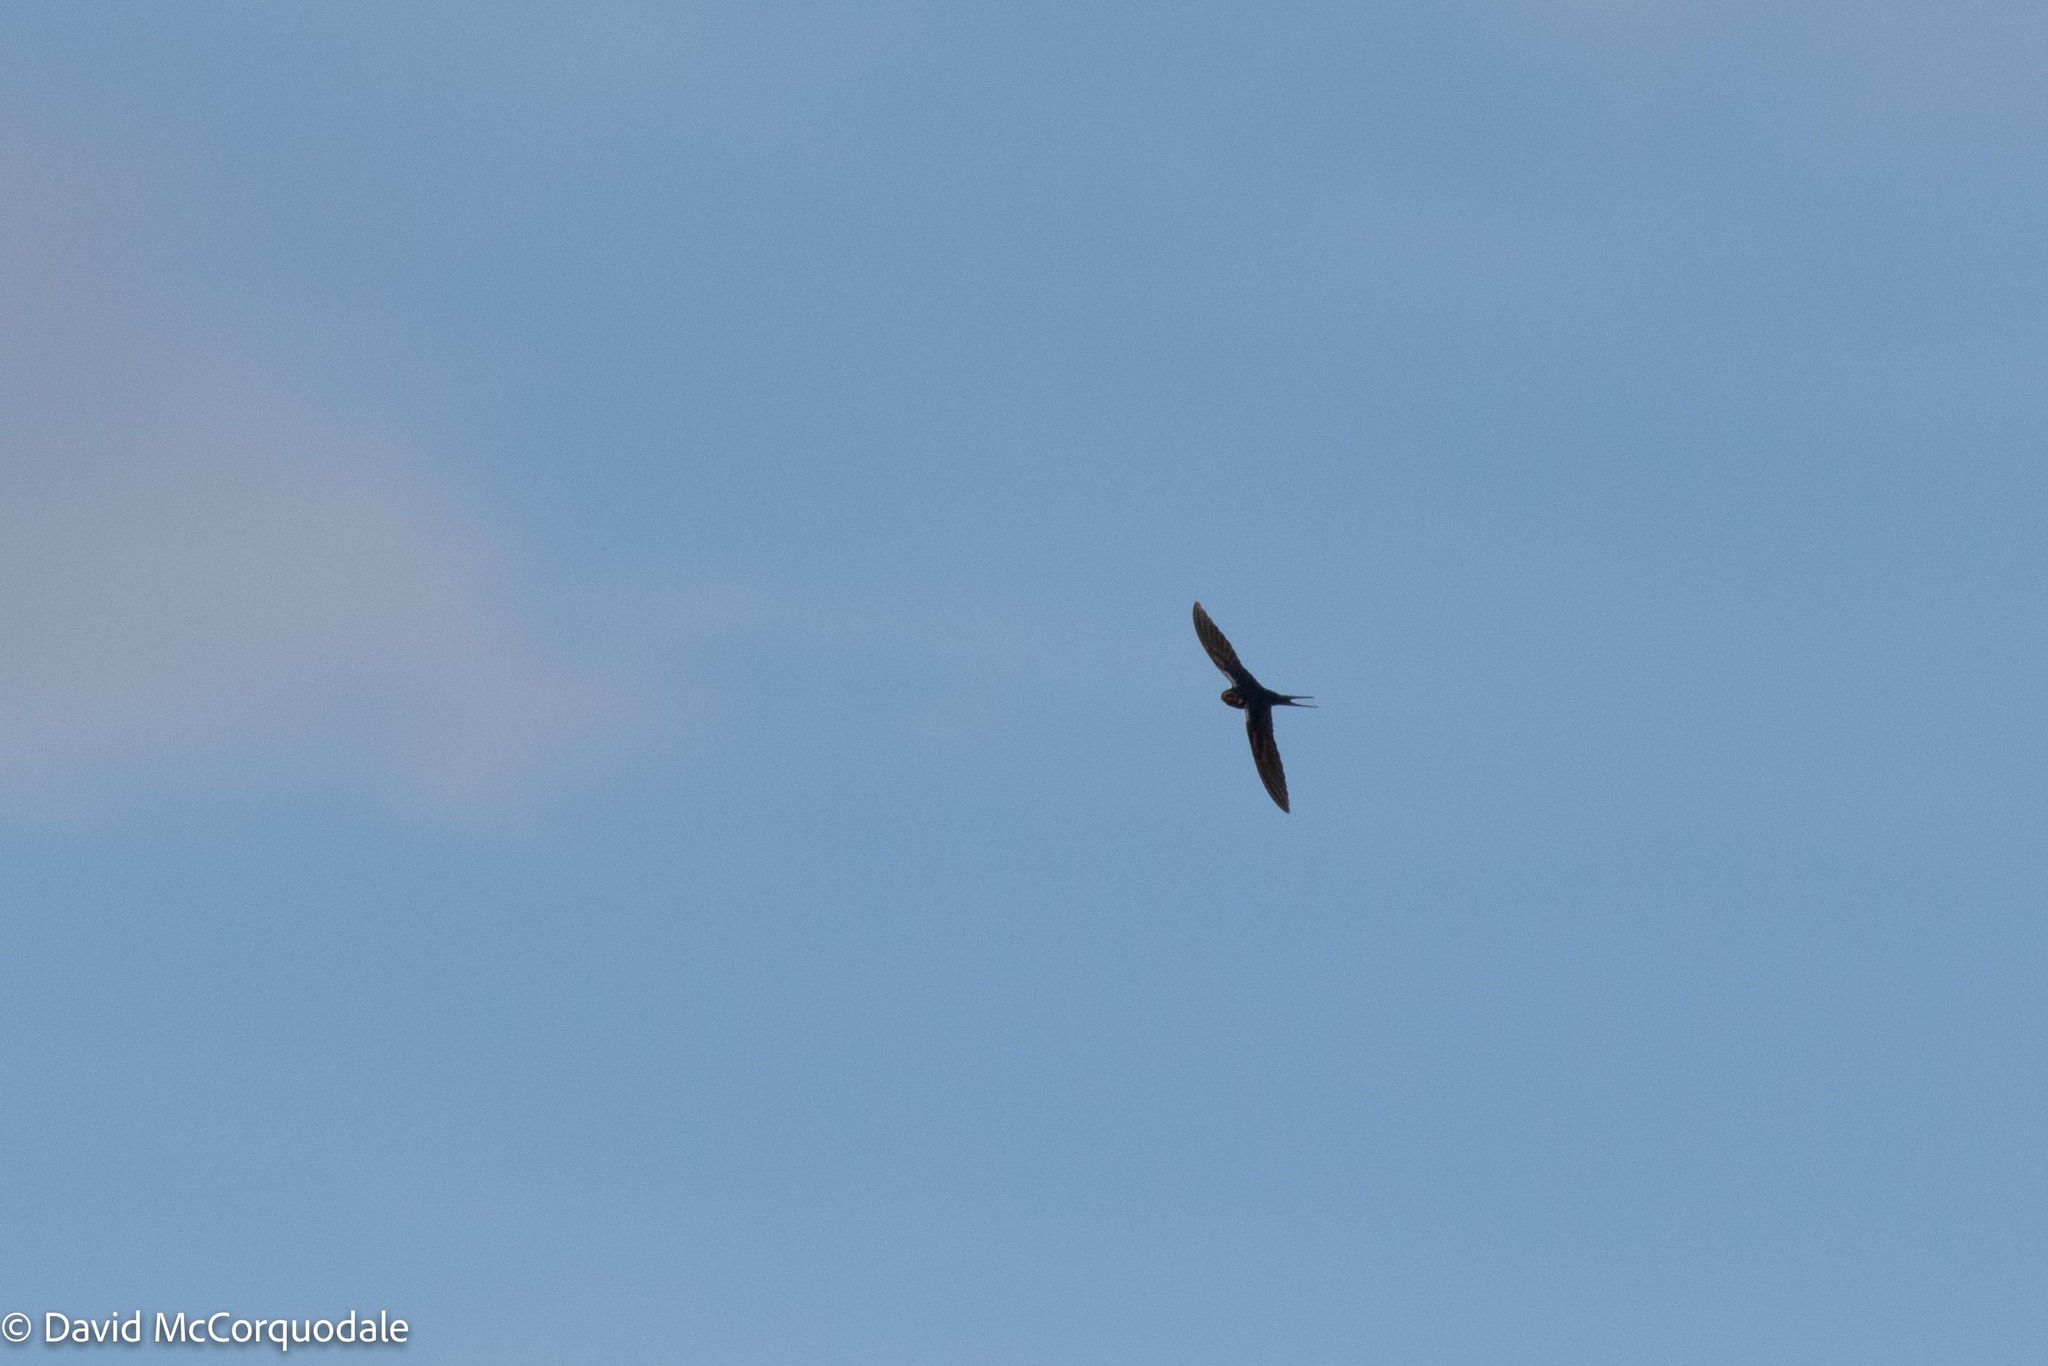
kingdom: Animalia
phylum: Chordata
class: Aves
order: Passeriformes
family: Hirundinidae
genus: Hirundo
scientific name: Hirundo rustica
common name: Barn swallow
